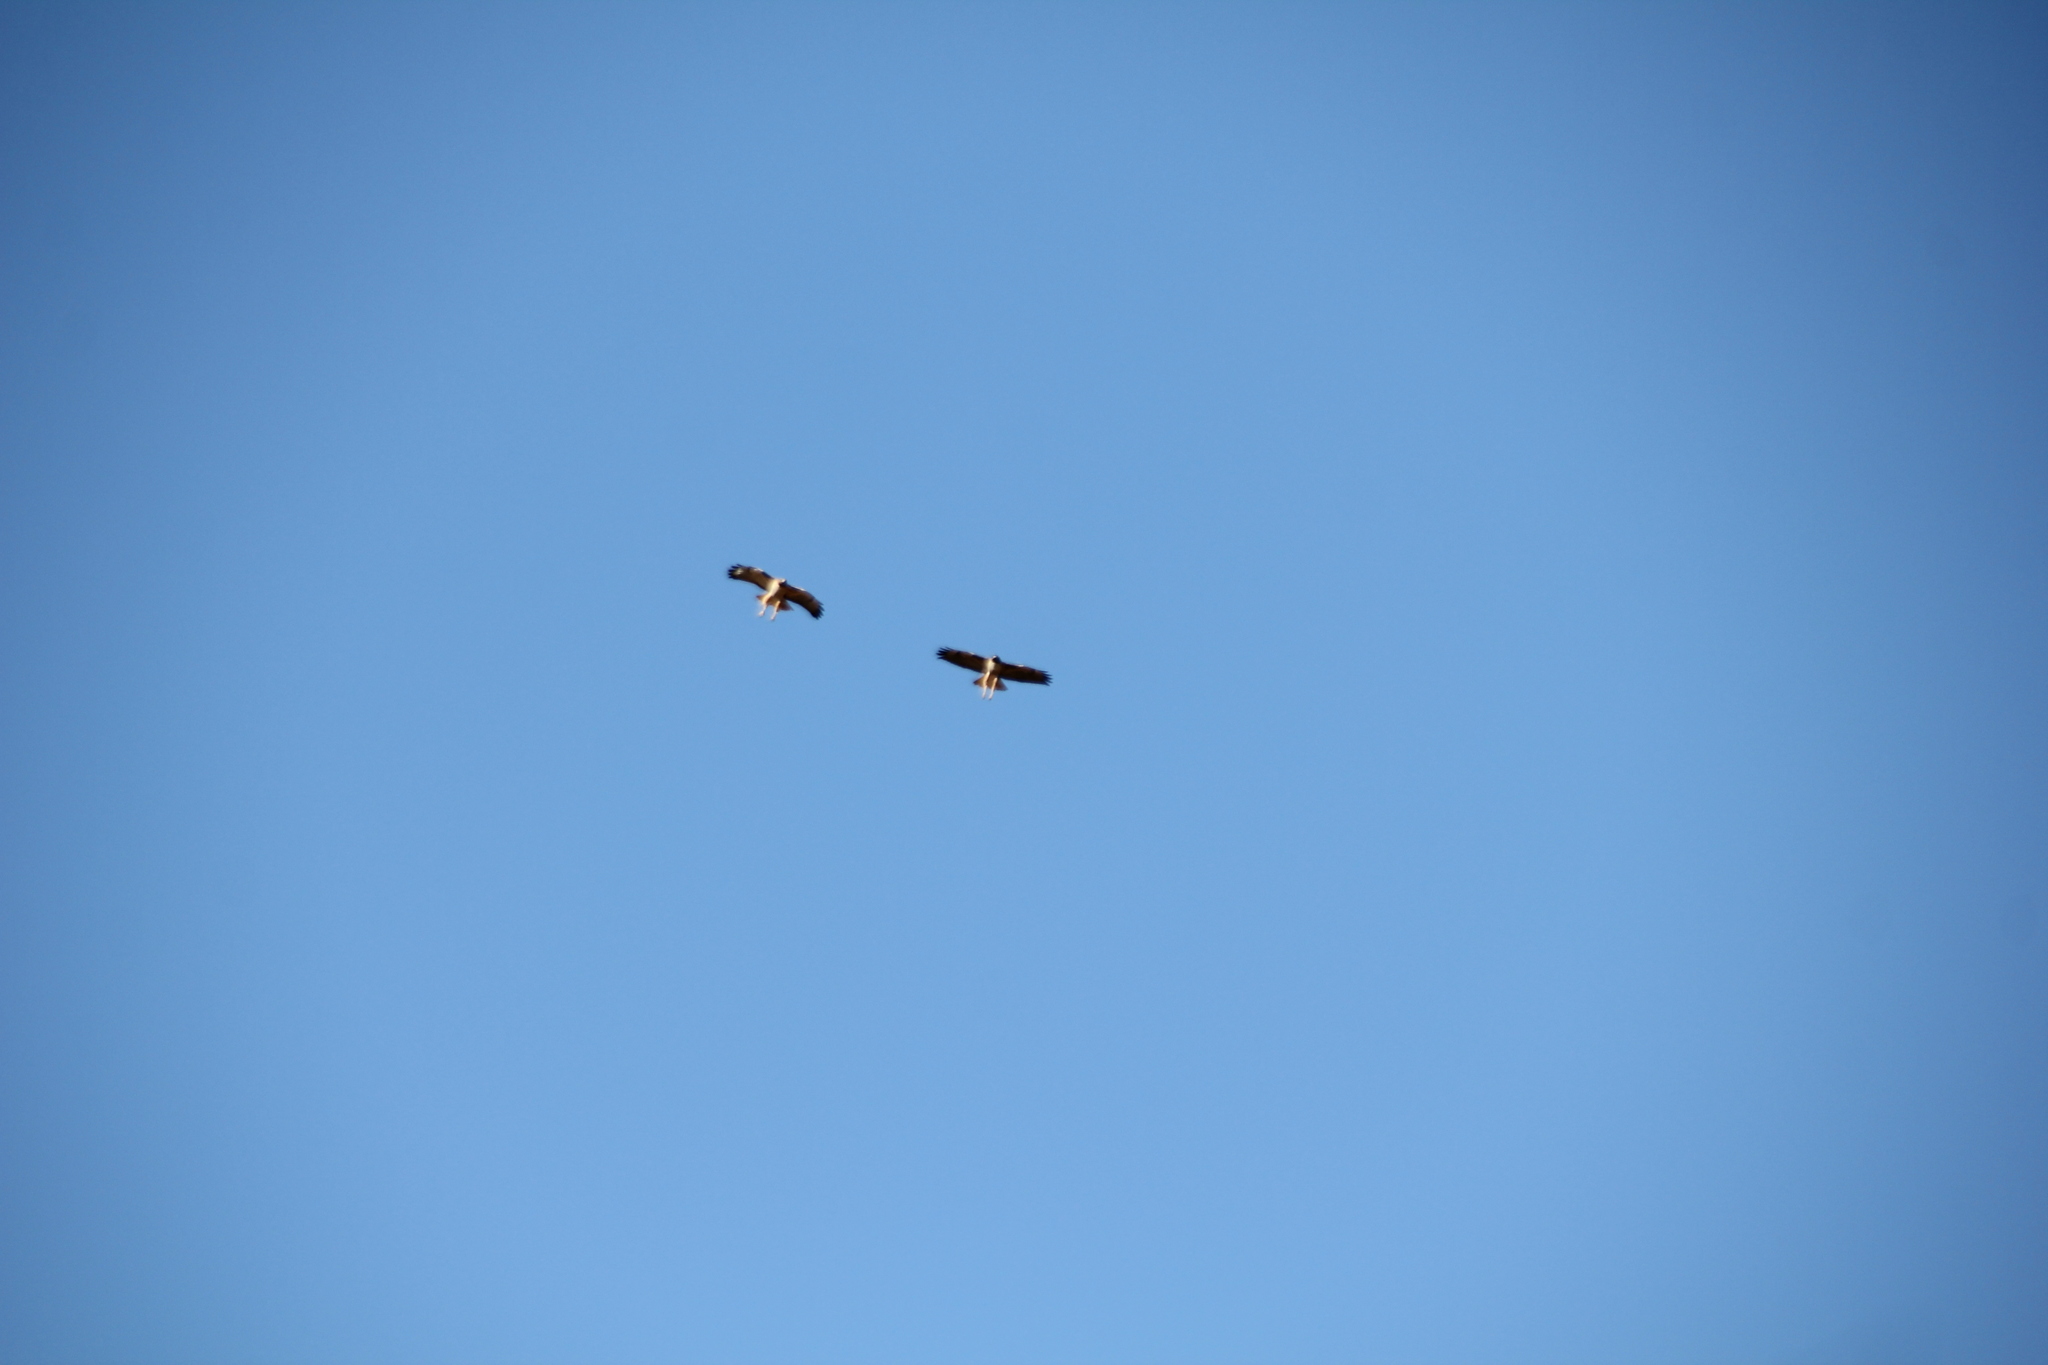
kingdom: Animalia
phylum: Chordata
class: Aves
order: Accipitriformes
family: Accipitridae
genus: Buteo
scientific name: Buteo jamaicensis
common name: Red-tailed hawk
